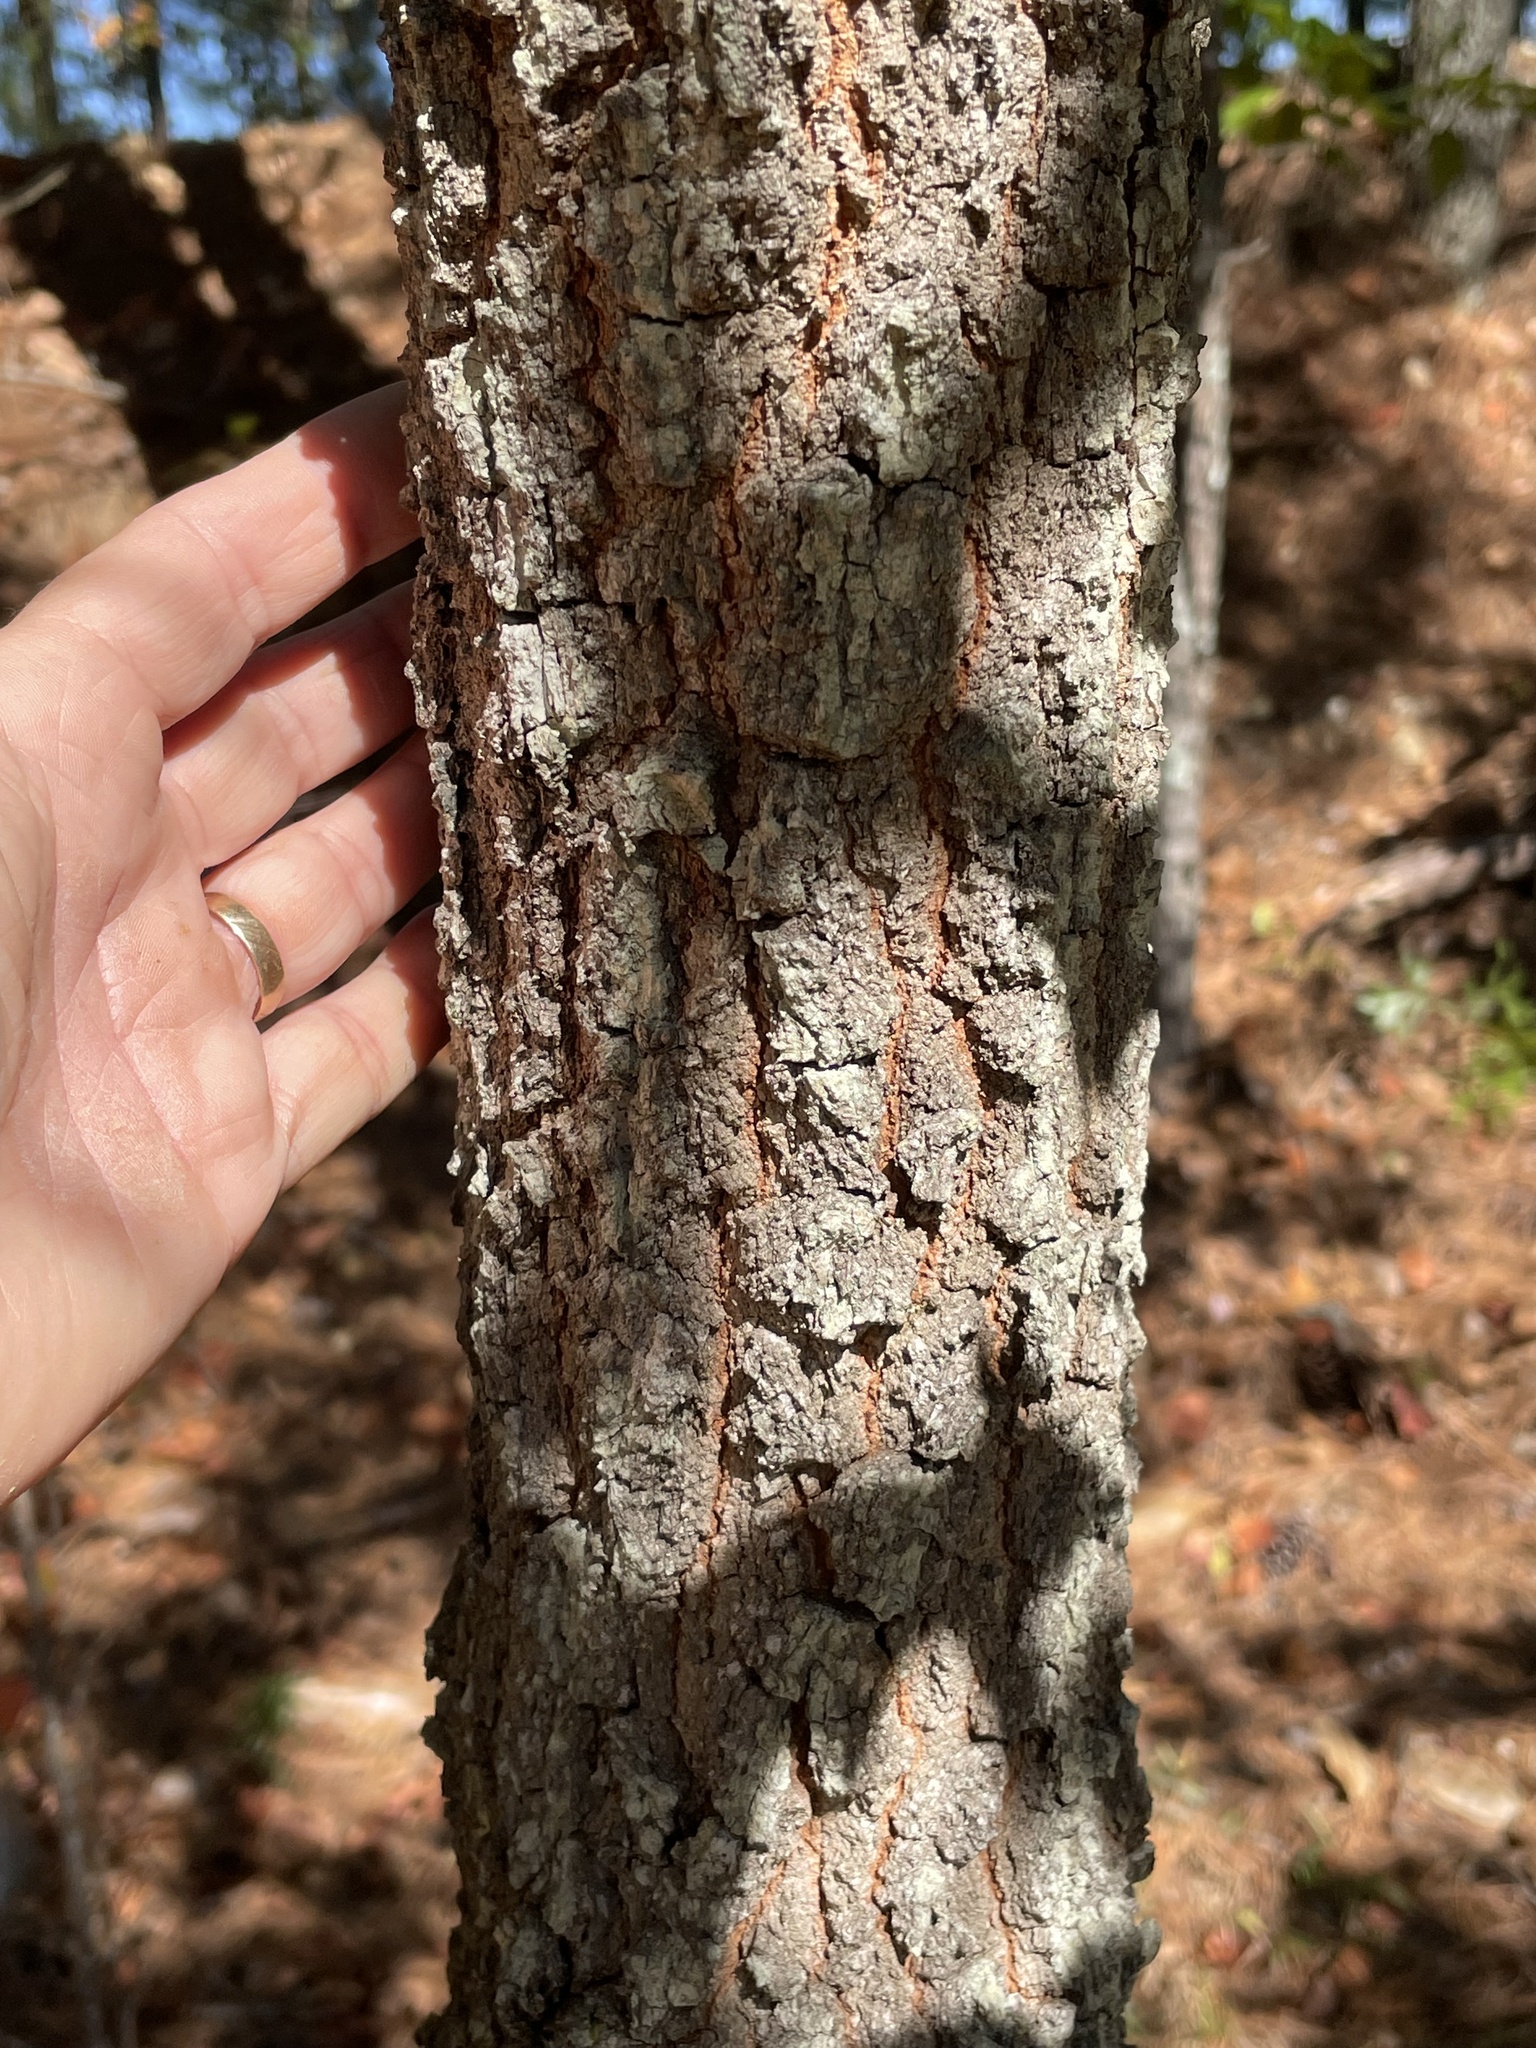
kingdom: Plantae
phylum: Tracheophyta
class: Magnoliopsida
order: Fagales
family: Fagaceae
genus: Quercus
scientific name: Quercus laevis
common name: Turkey oak
